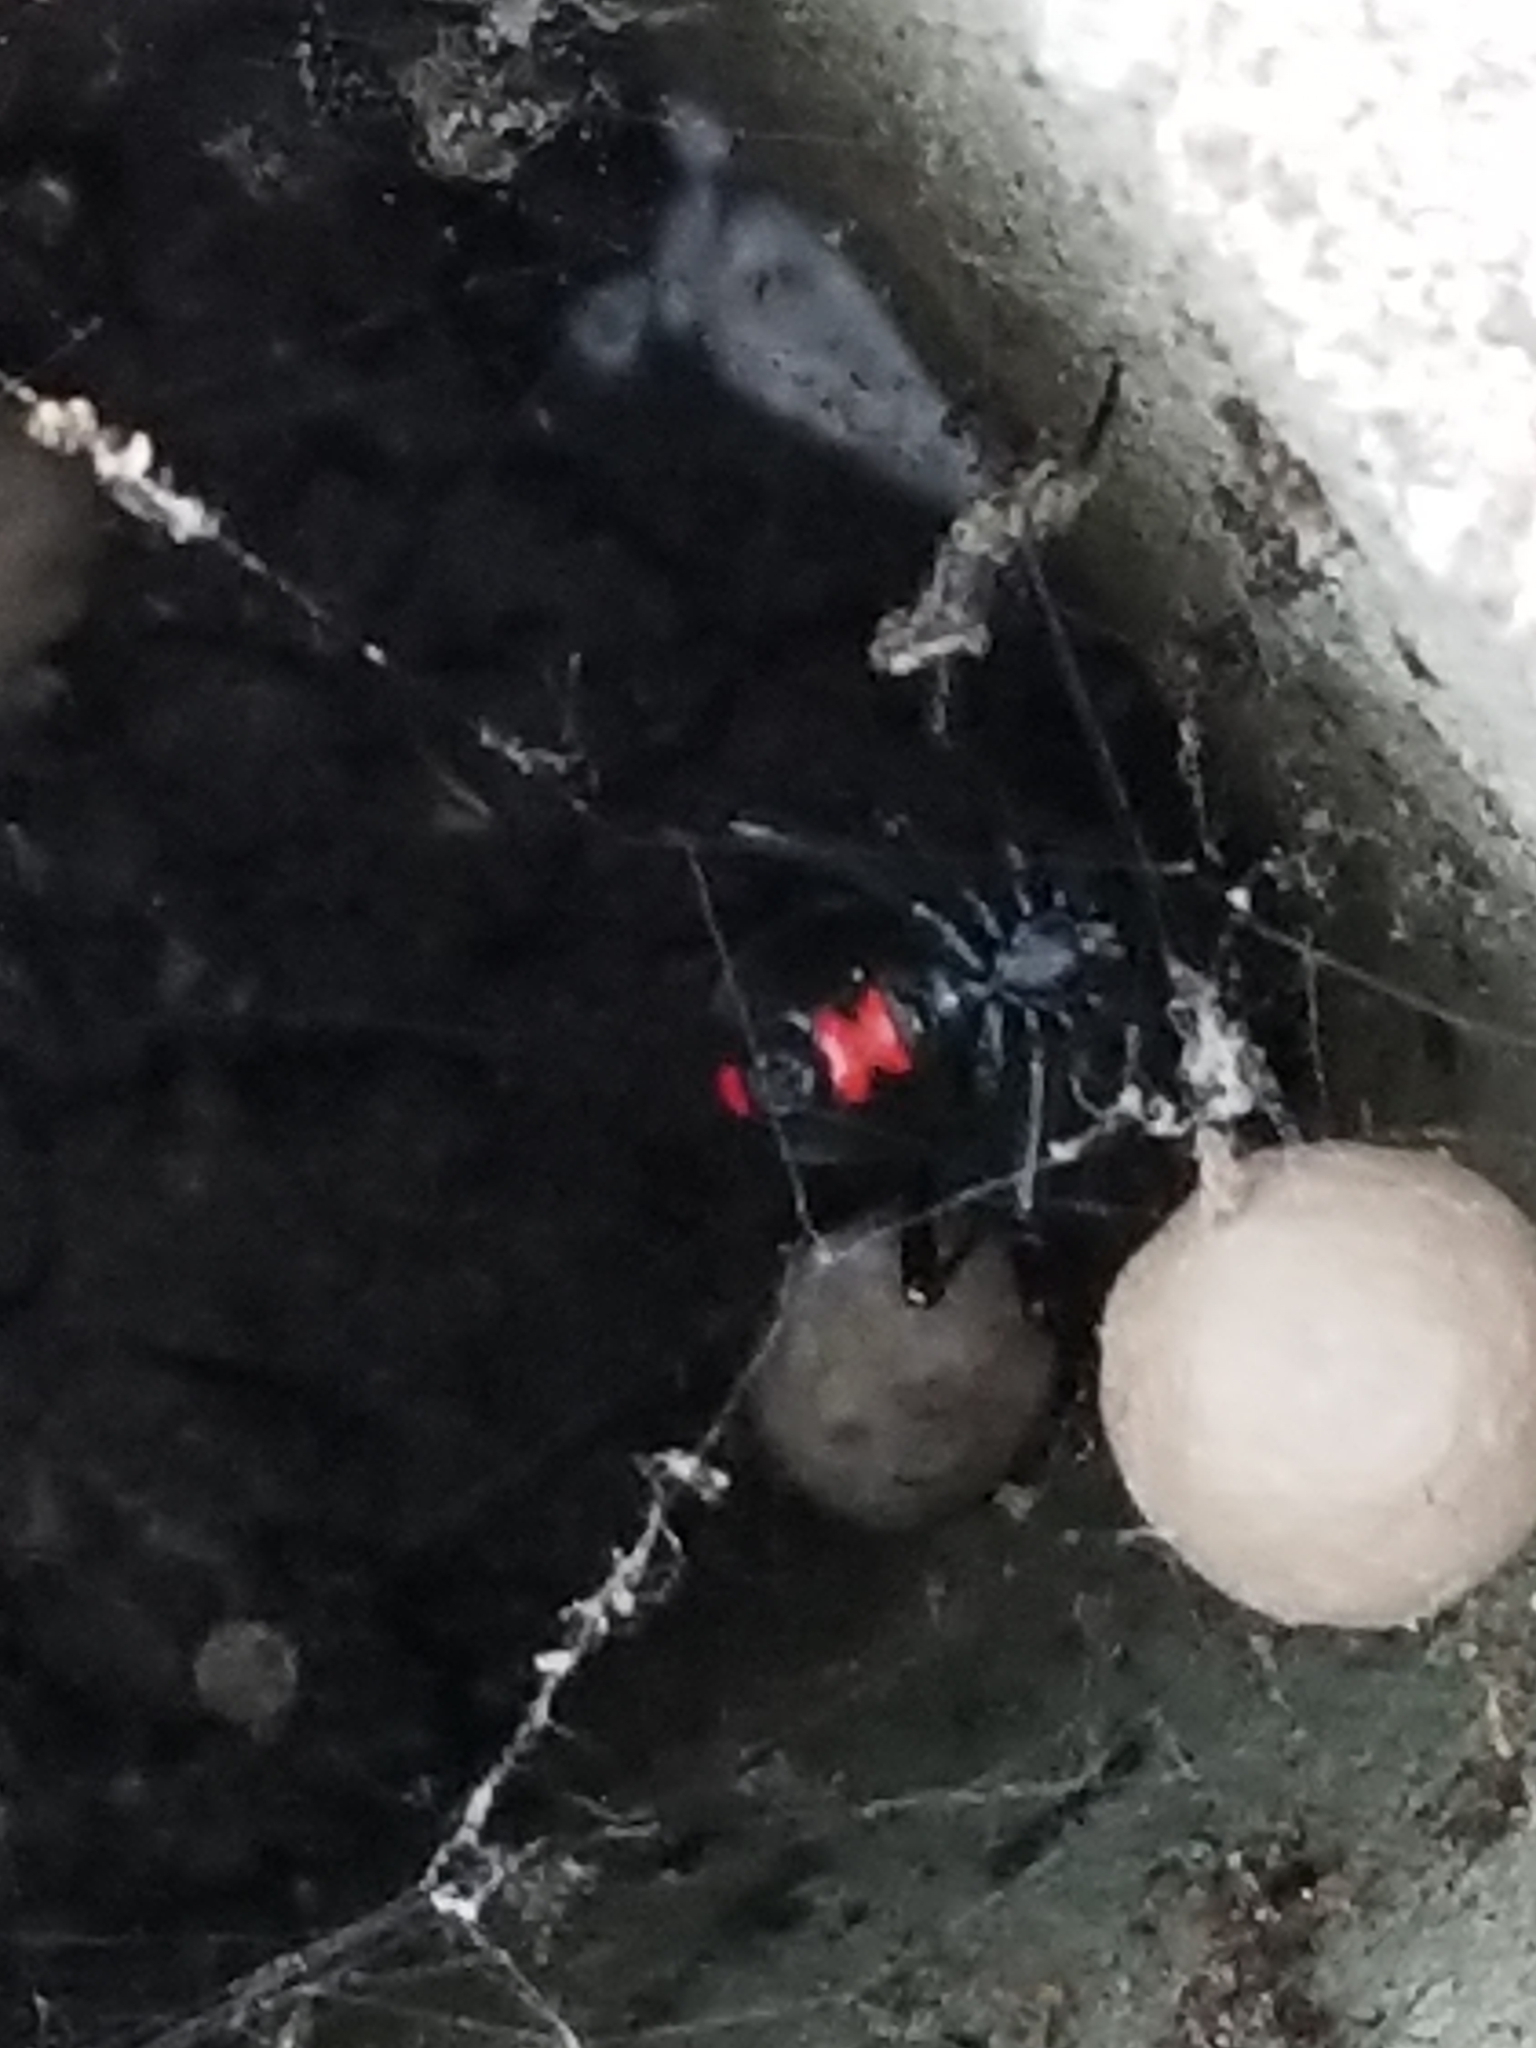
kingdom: Animalia
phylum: Arthropoda
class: Arachnida
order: Araneae
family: Theridiidae
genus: Latrodectus
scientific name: Latrodectus mactans
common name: Cobweb spiders
